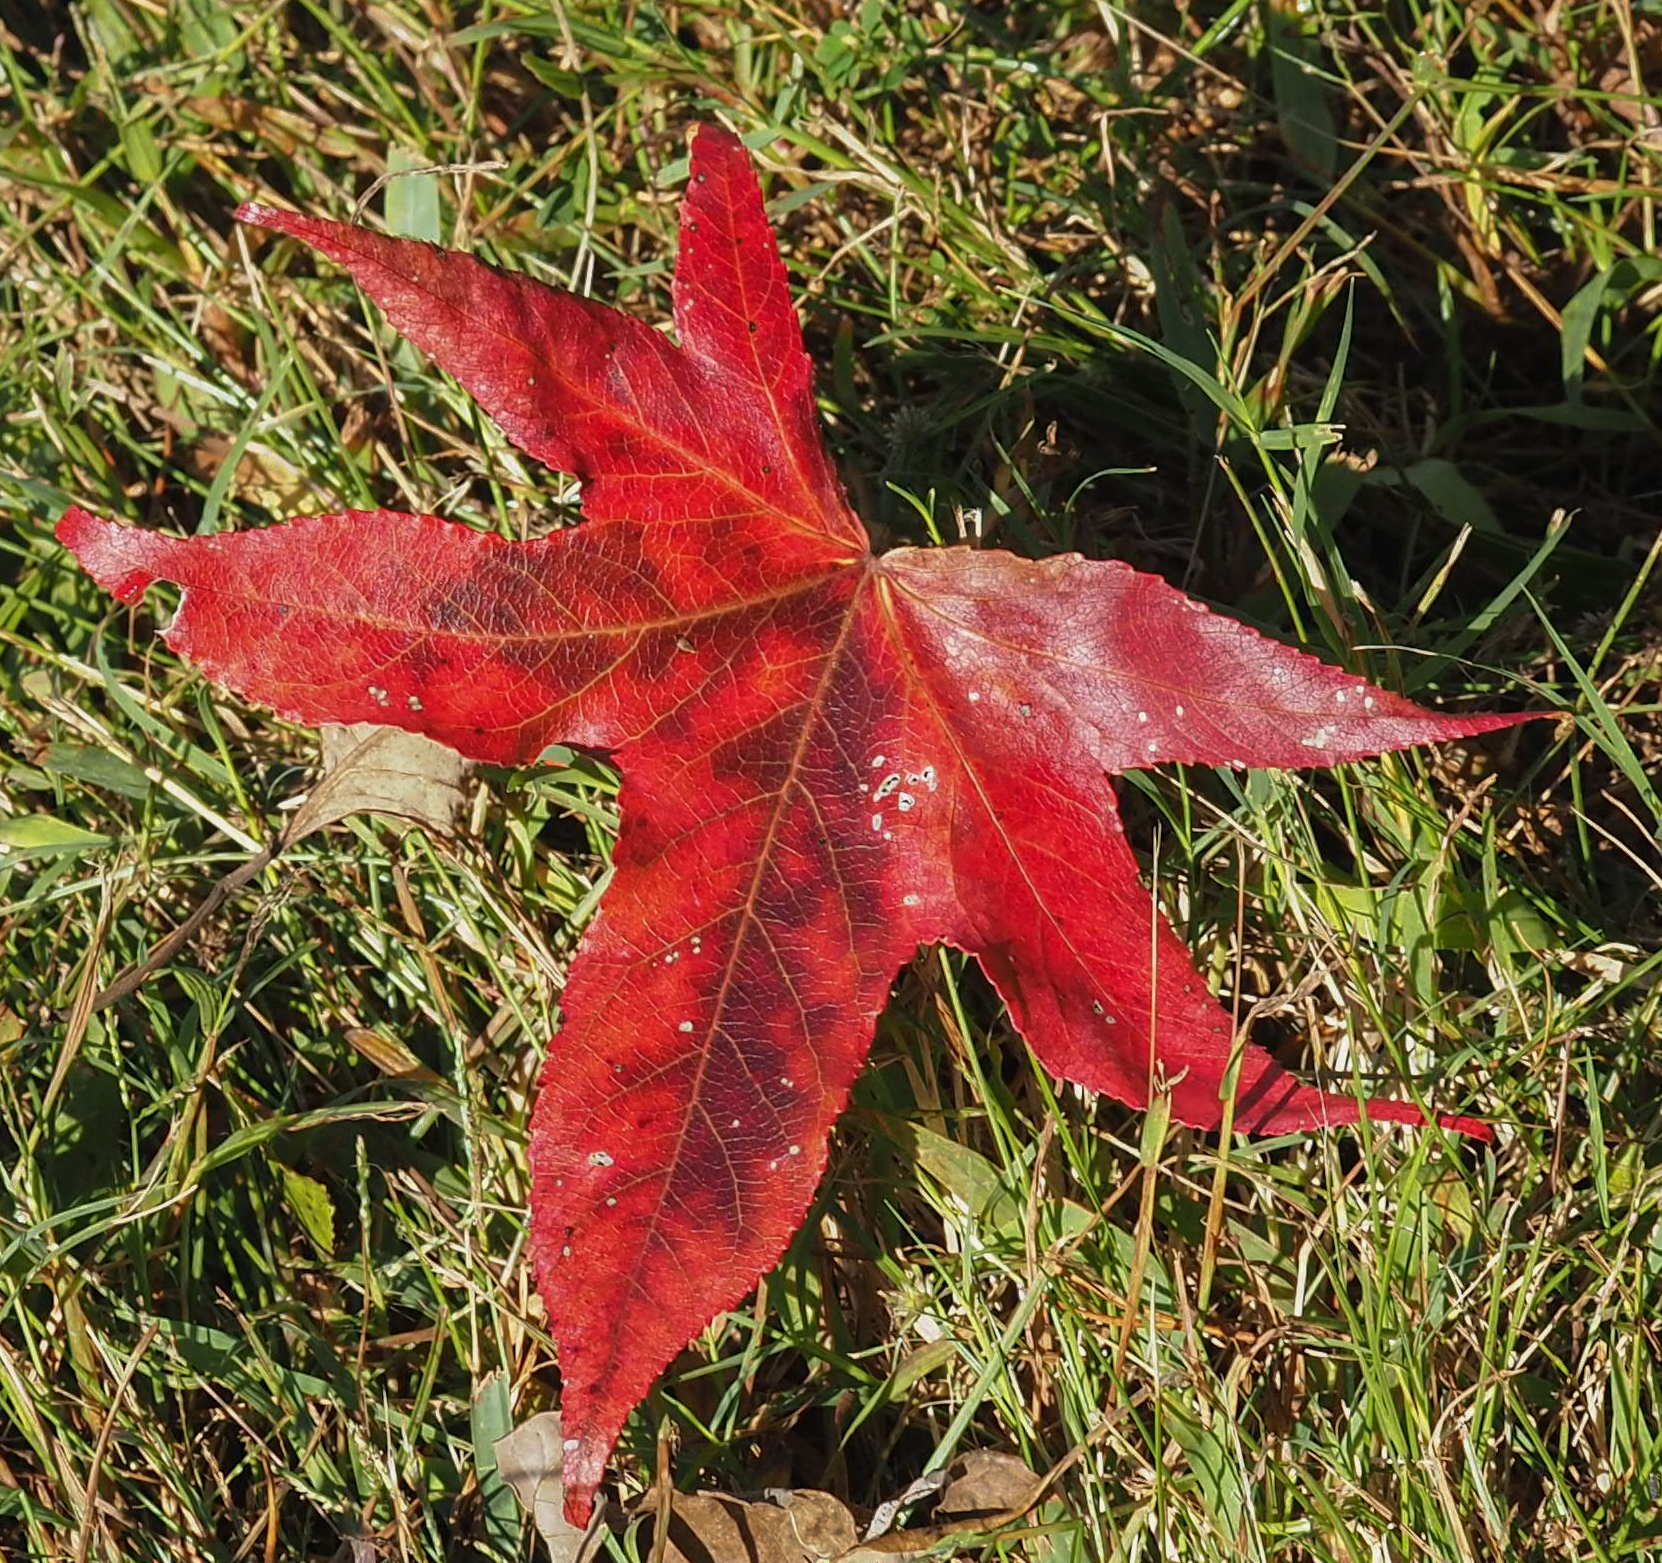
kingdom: Plantae
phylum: Tracheophyta
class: Magnoliopsida
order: Saxifragales
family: Altingiaceae
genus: Liquidambar
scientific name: Liquidambar styraciflua
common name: Sweet gum
